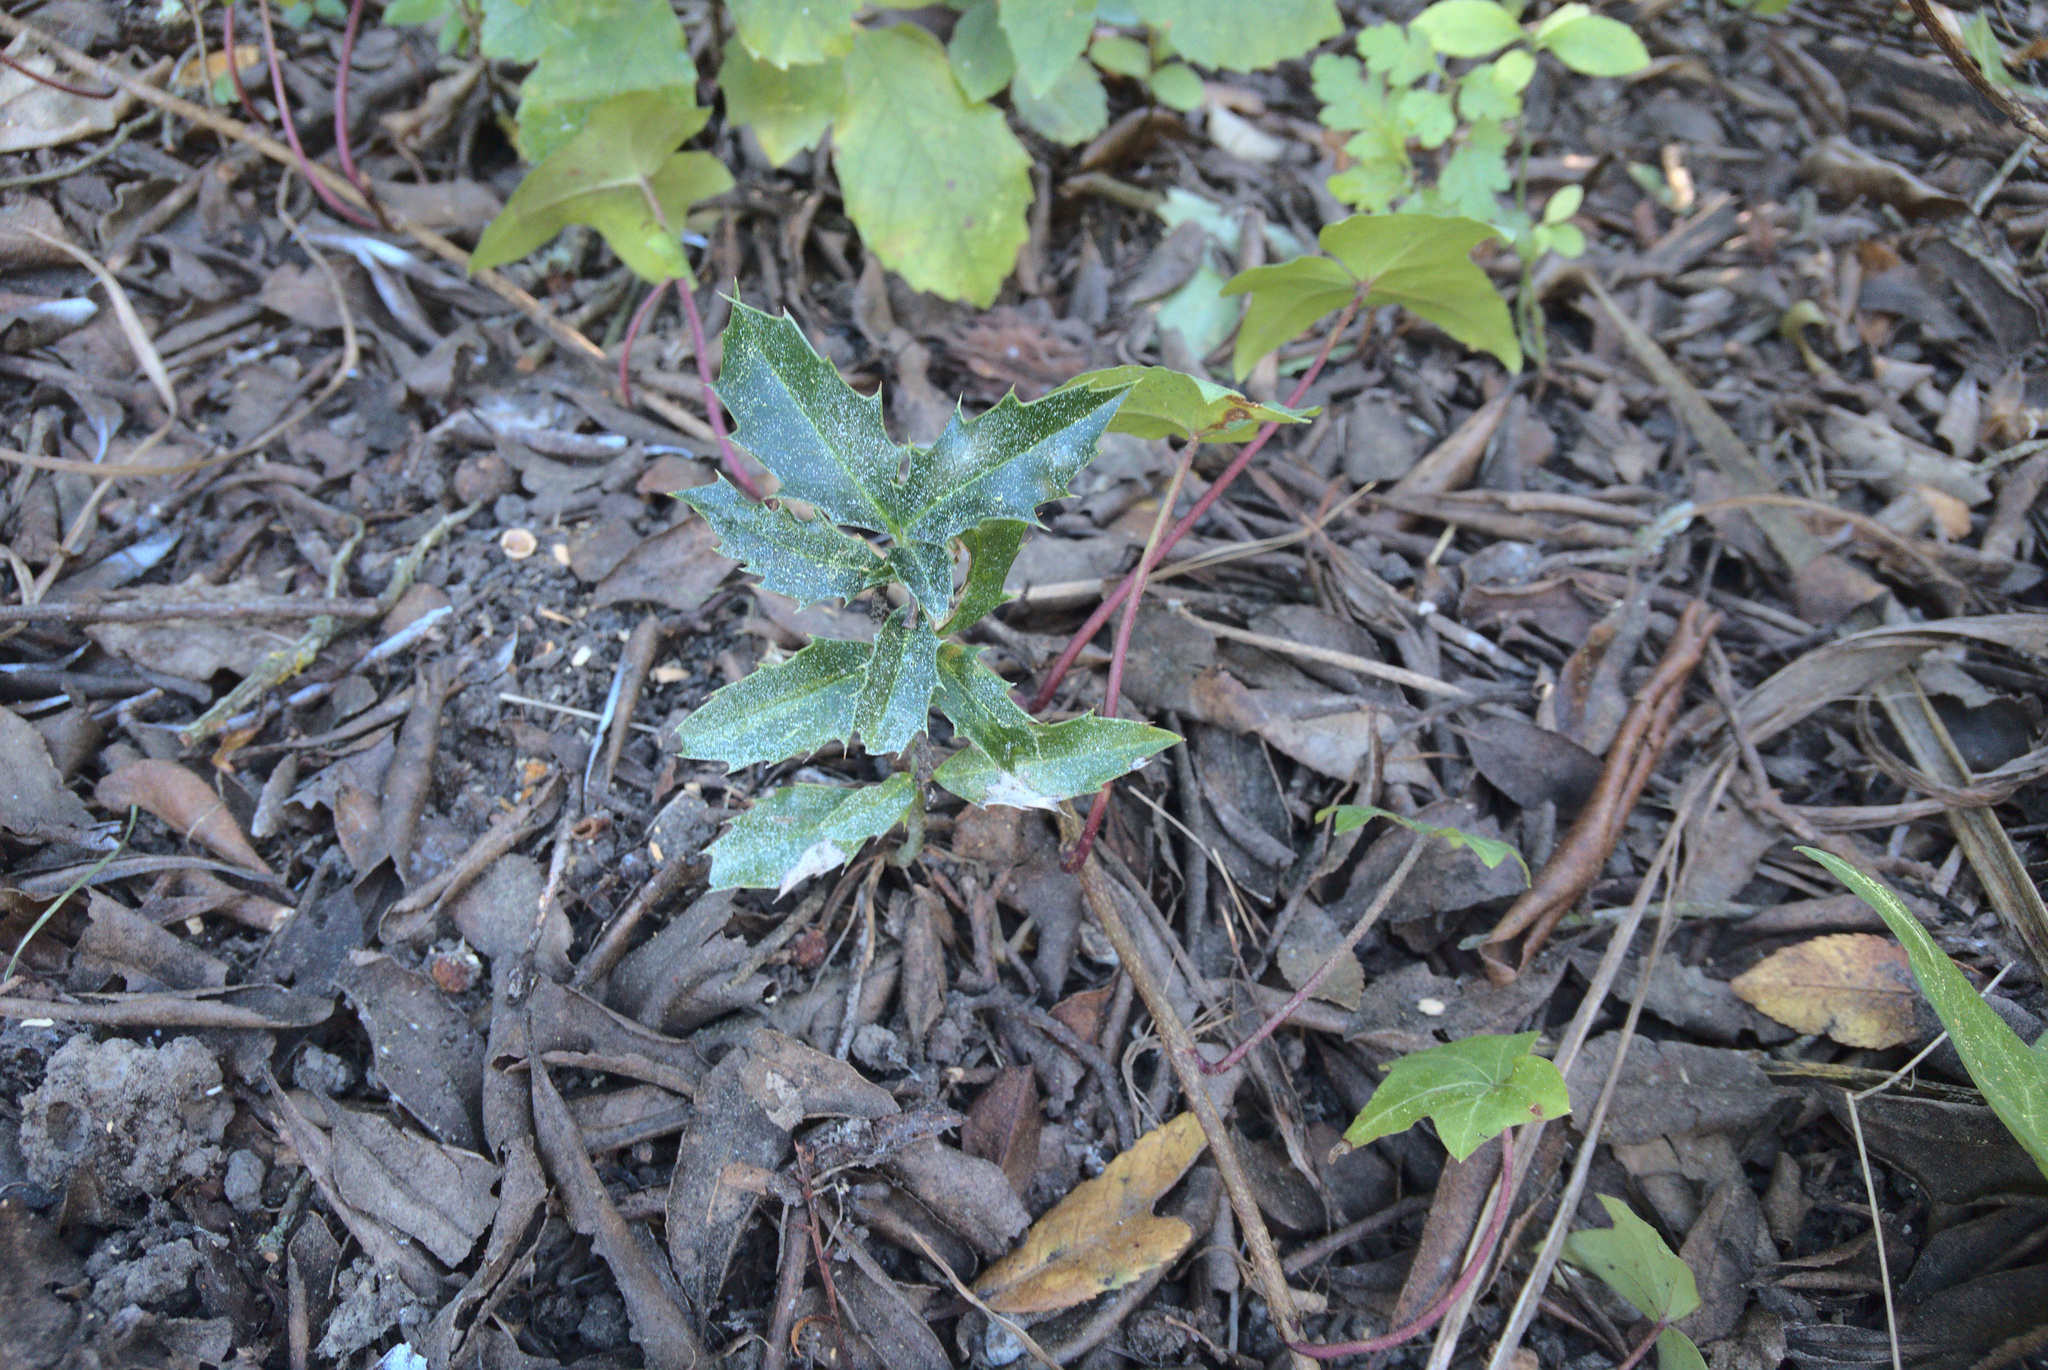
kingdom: Plantae
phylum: Tracheophyta
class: Magnoliopsida
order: Aquifoliales
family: Aquifoliaceae
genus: Ilex
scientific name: Ilex aquifolium
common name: English holly
